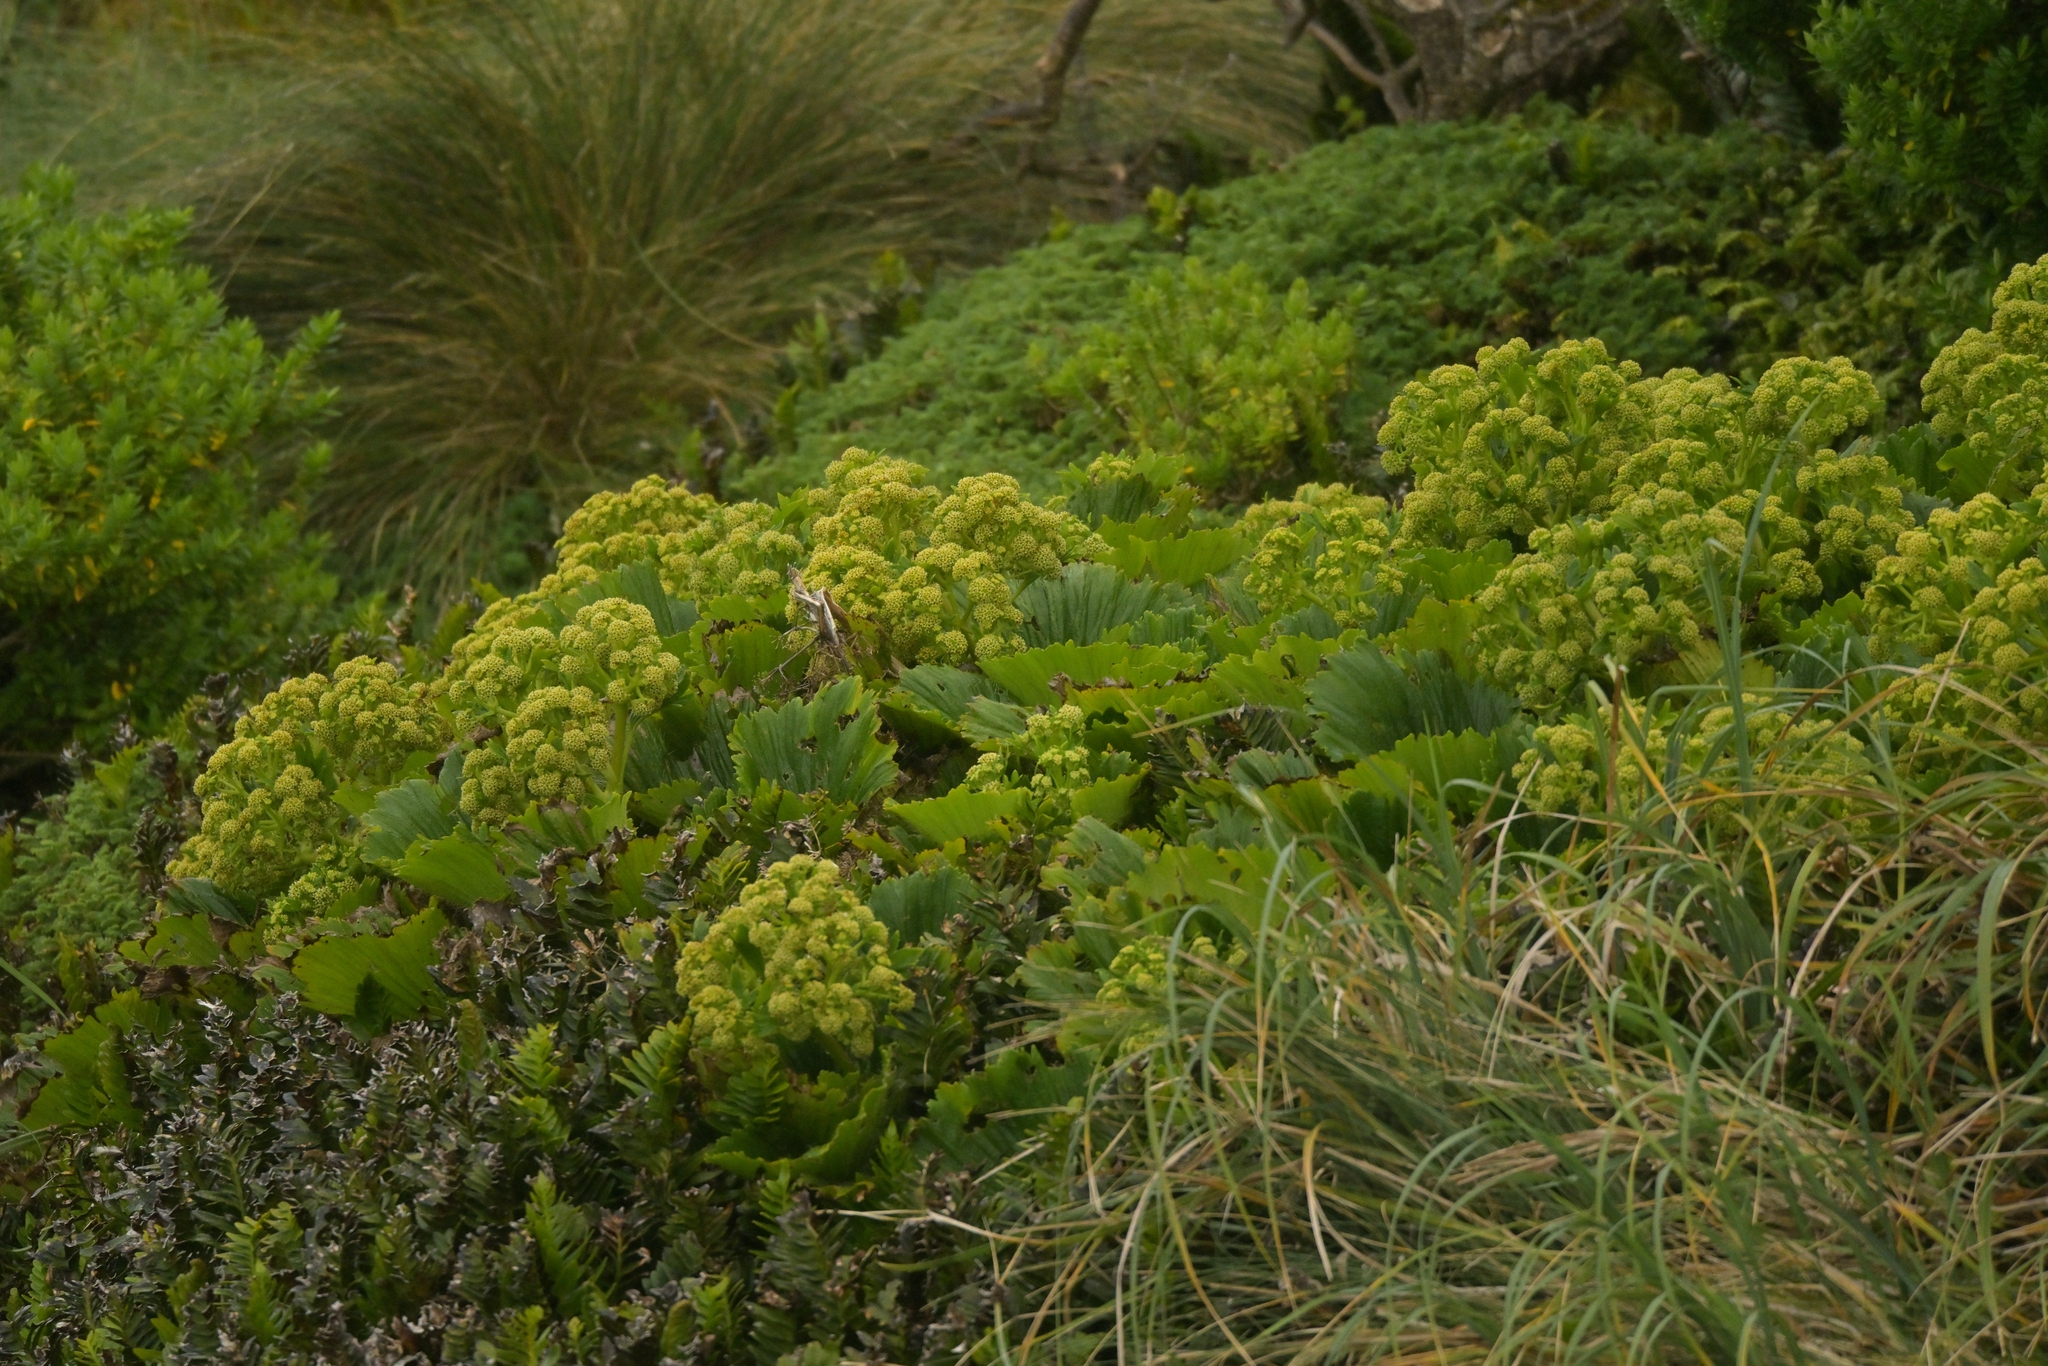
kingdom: Plantae
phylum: Tracheophyta
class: Magnoliopsida
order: Apiales
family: Apiaceae
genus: Azorella
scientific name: Azorella polaris
